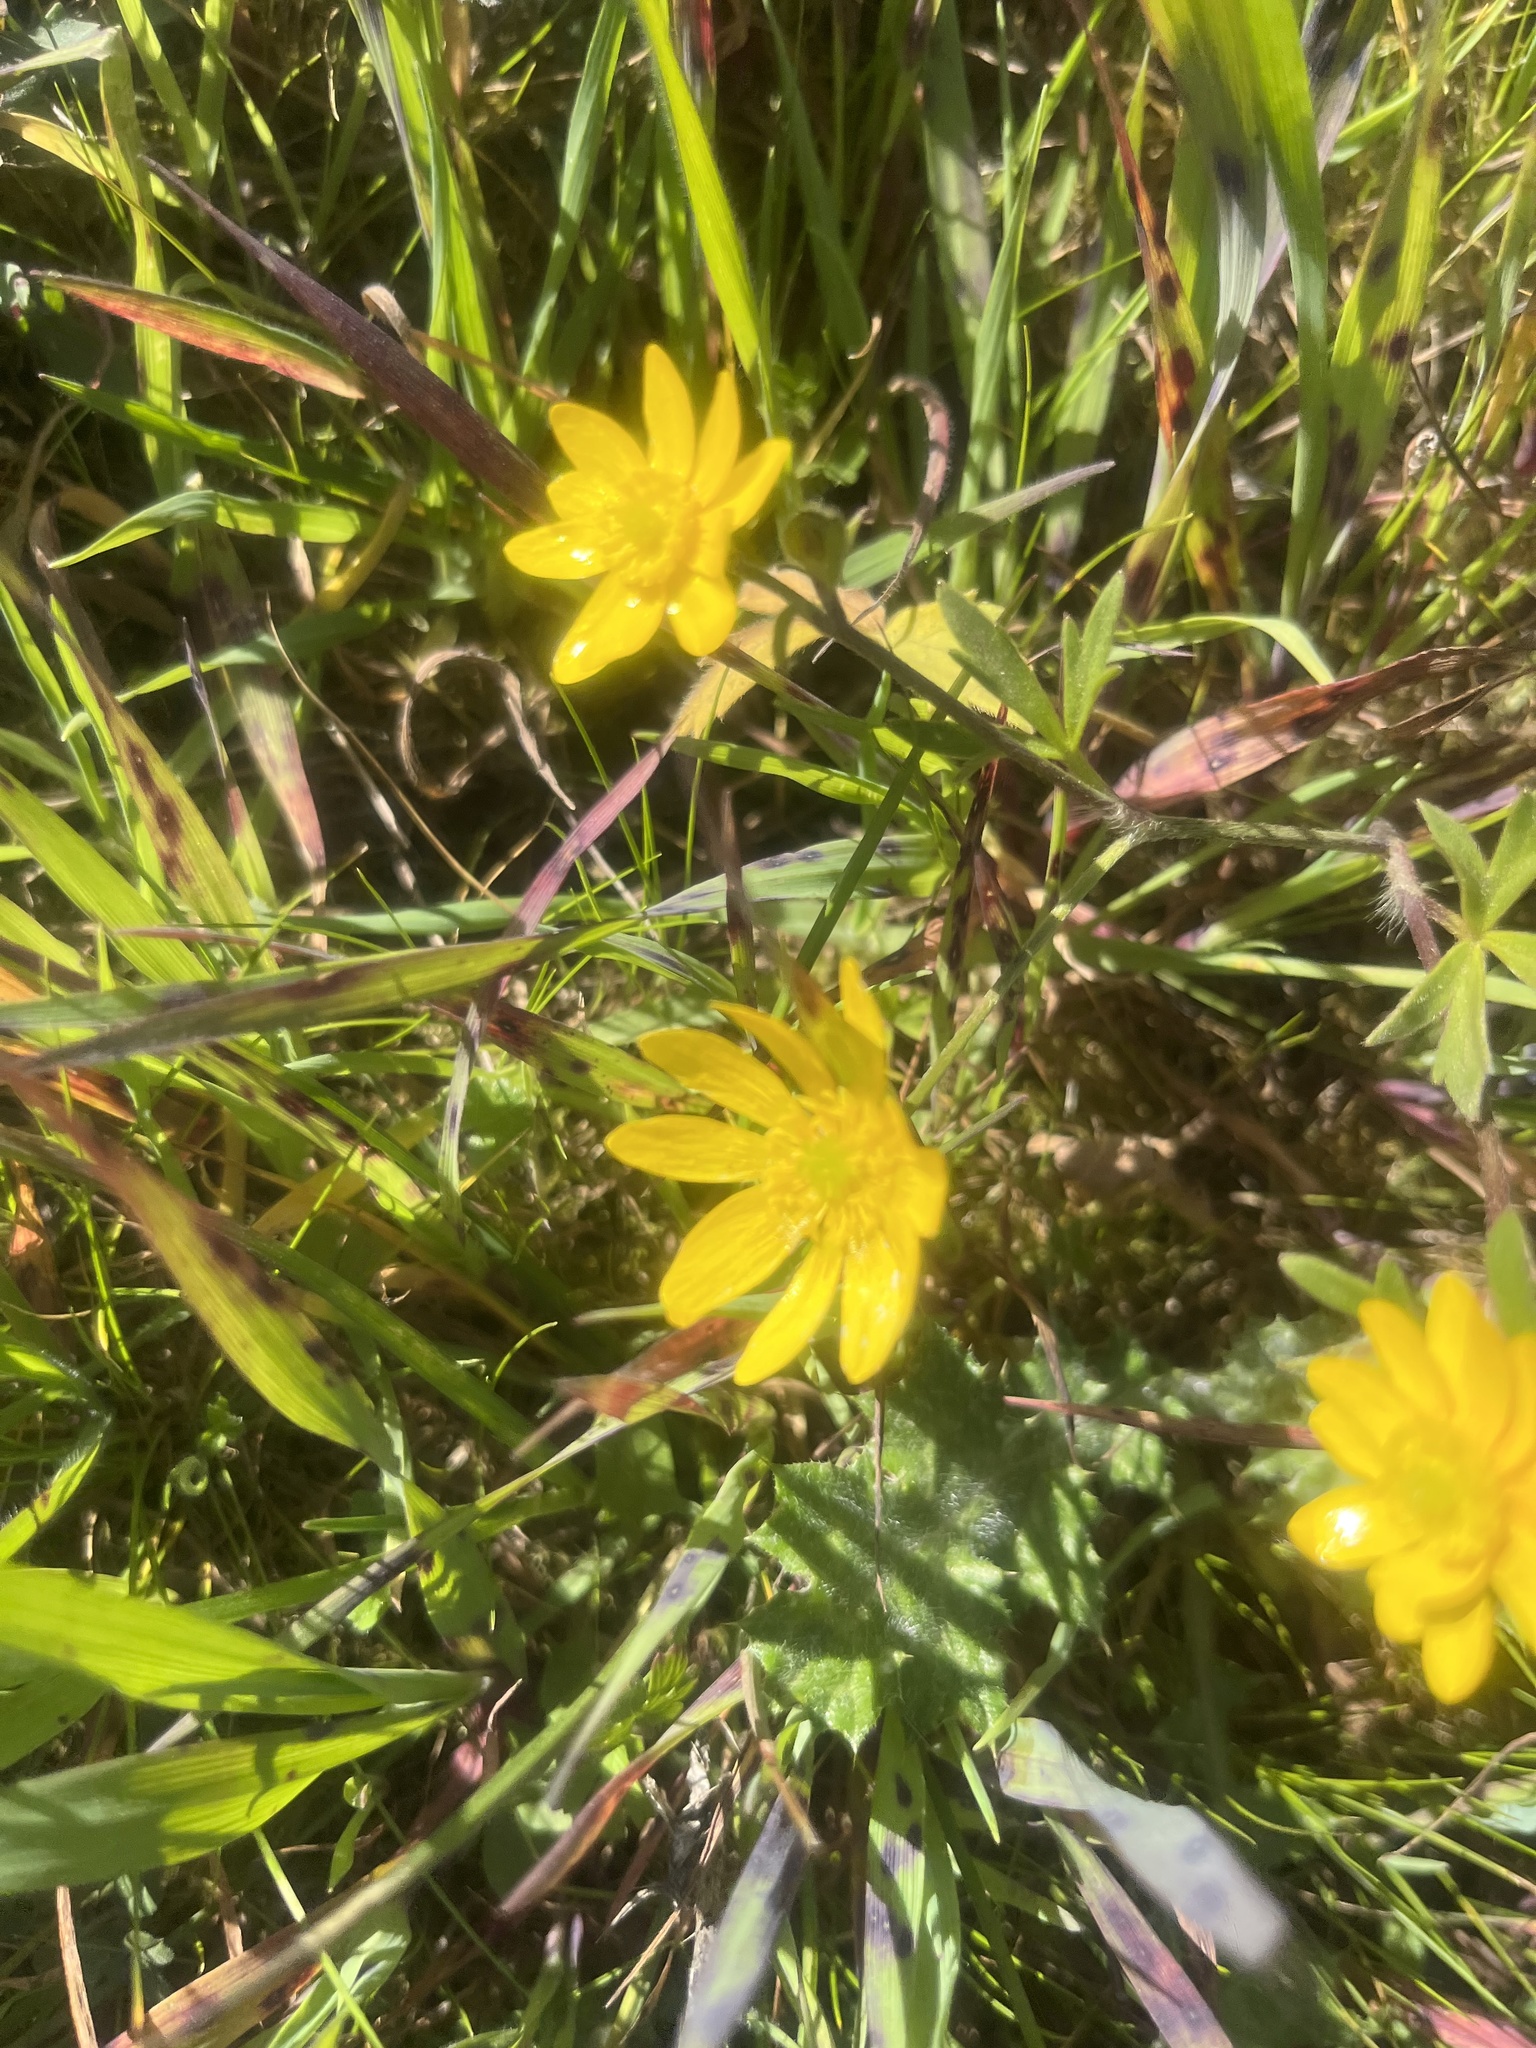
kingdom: Plantae
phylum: Tracheophyta
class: Magnoliopsida
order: Ranunculales
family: Ranunculaceae
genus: Ranunculus
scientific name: Ranunculus californicus
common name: California buttercup
